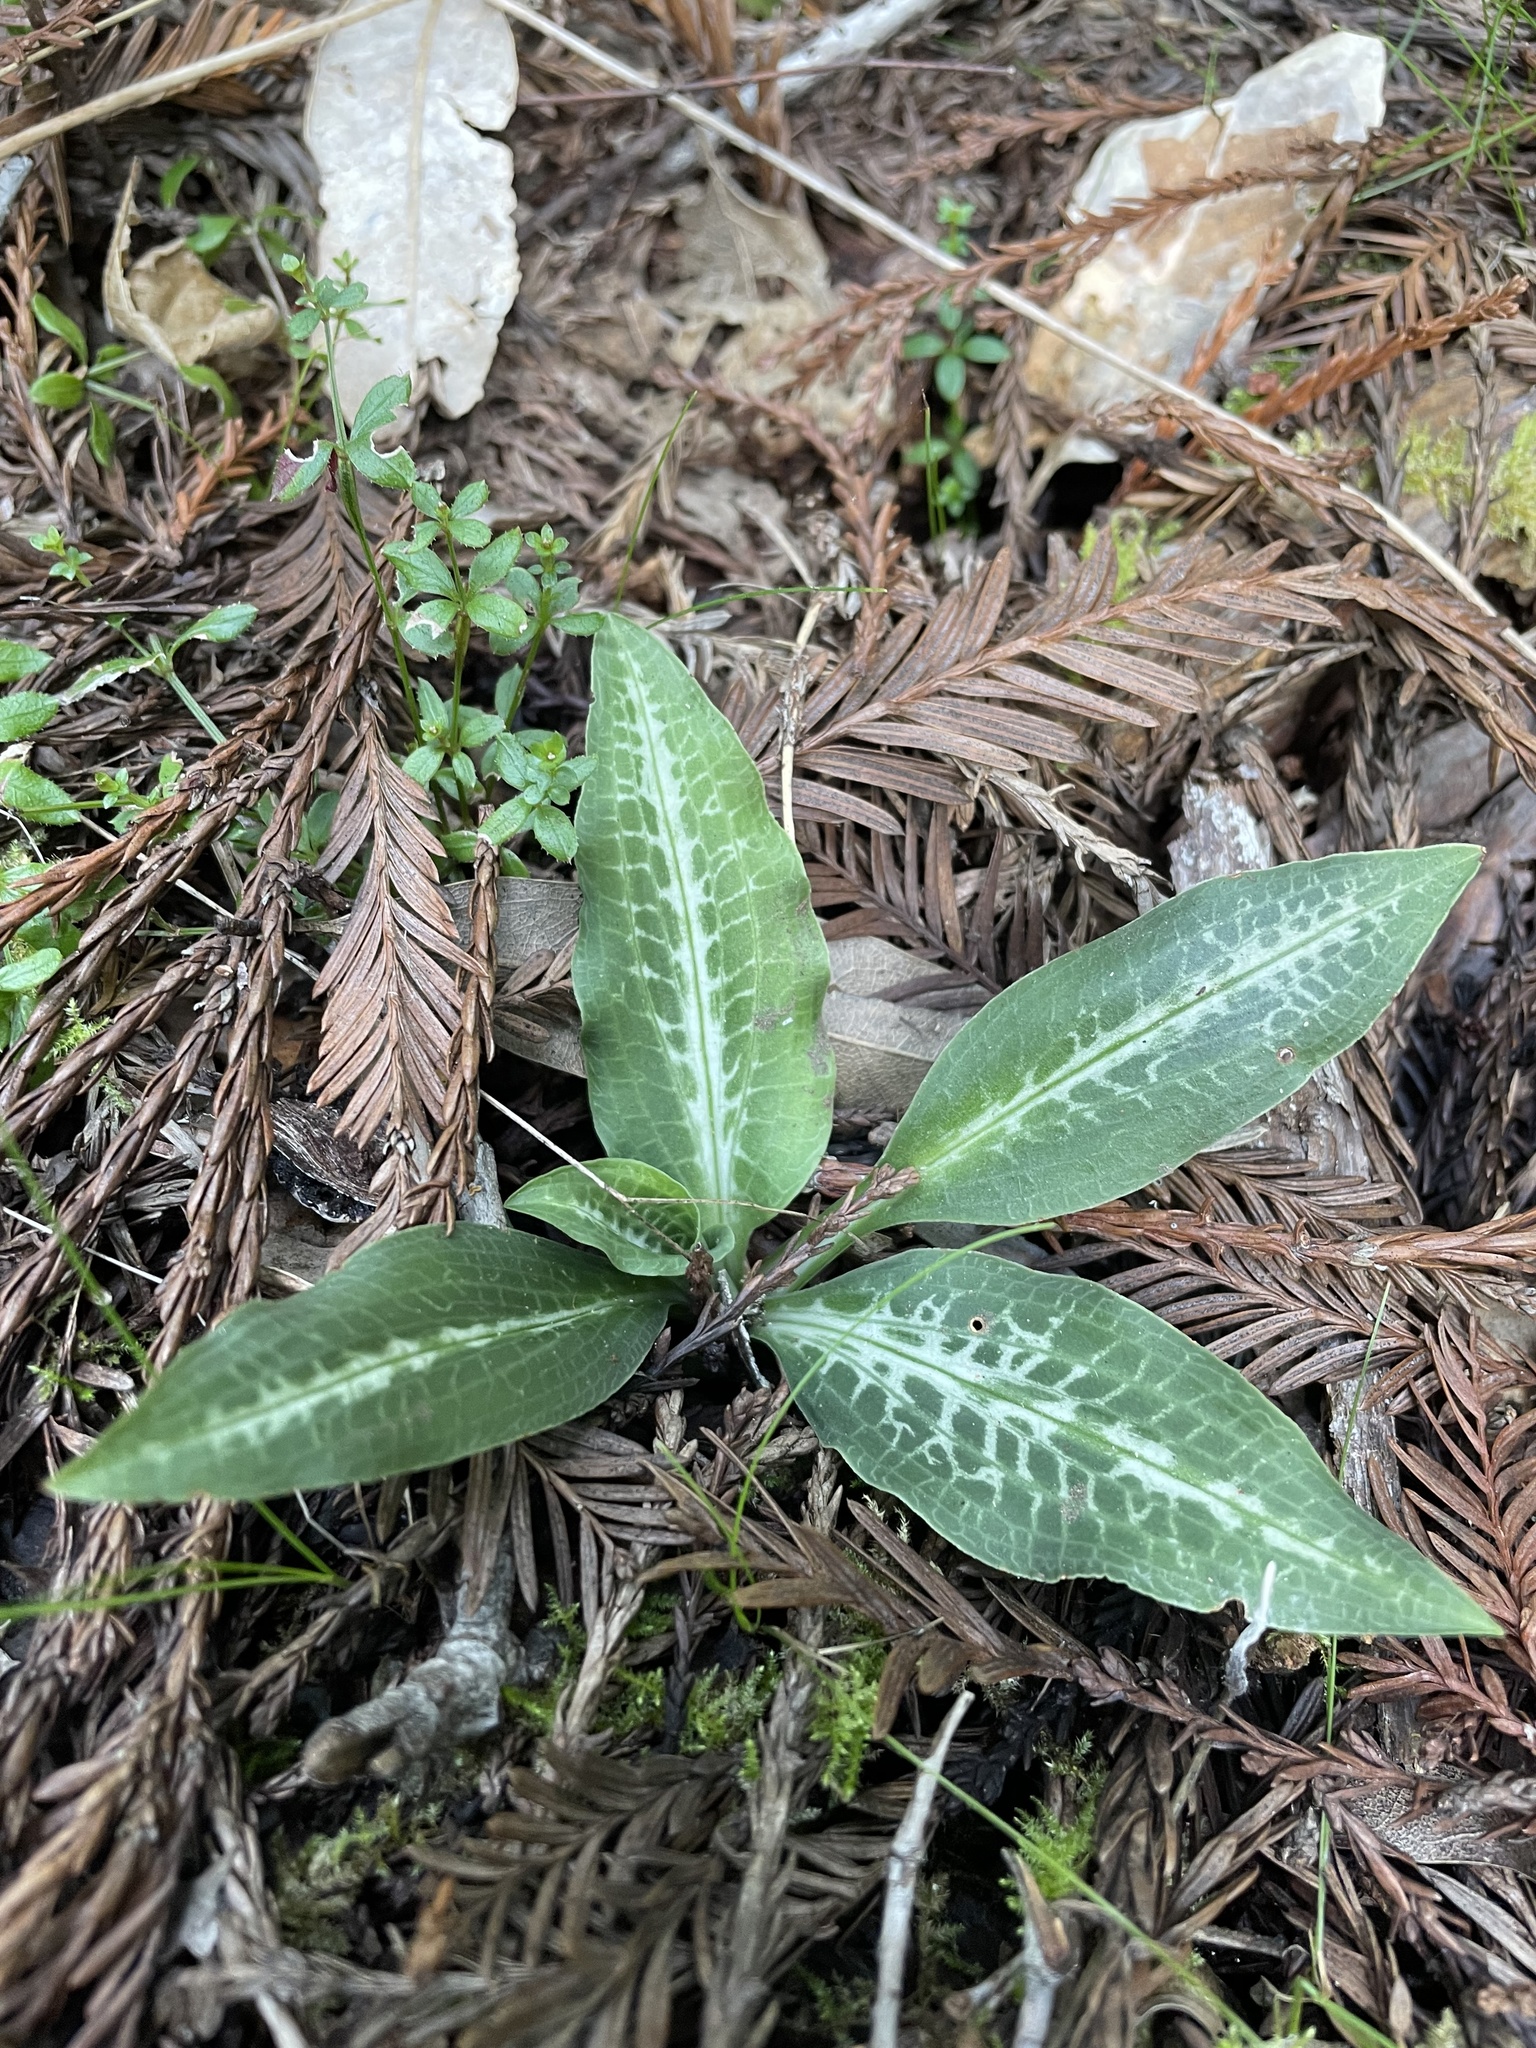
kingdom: Plantae
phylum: Tracheophyta
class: Liliopsida
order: Asparagales
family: Orchidaceae
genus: Goodyera
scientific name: Goodyera oblongifolia
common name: Giant rattlesnake-plantain
